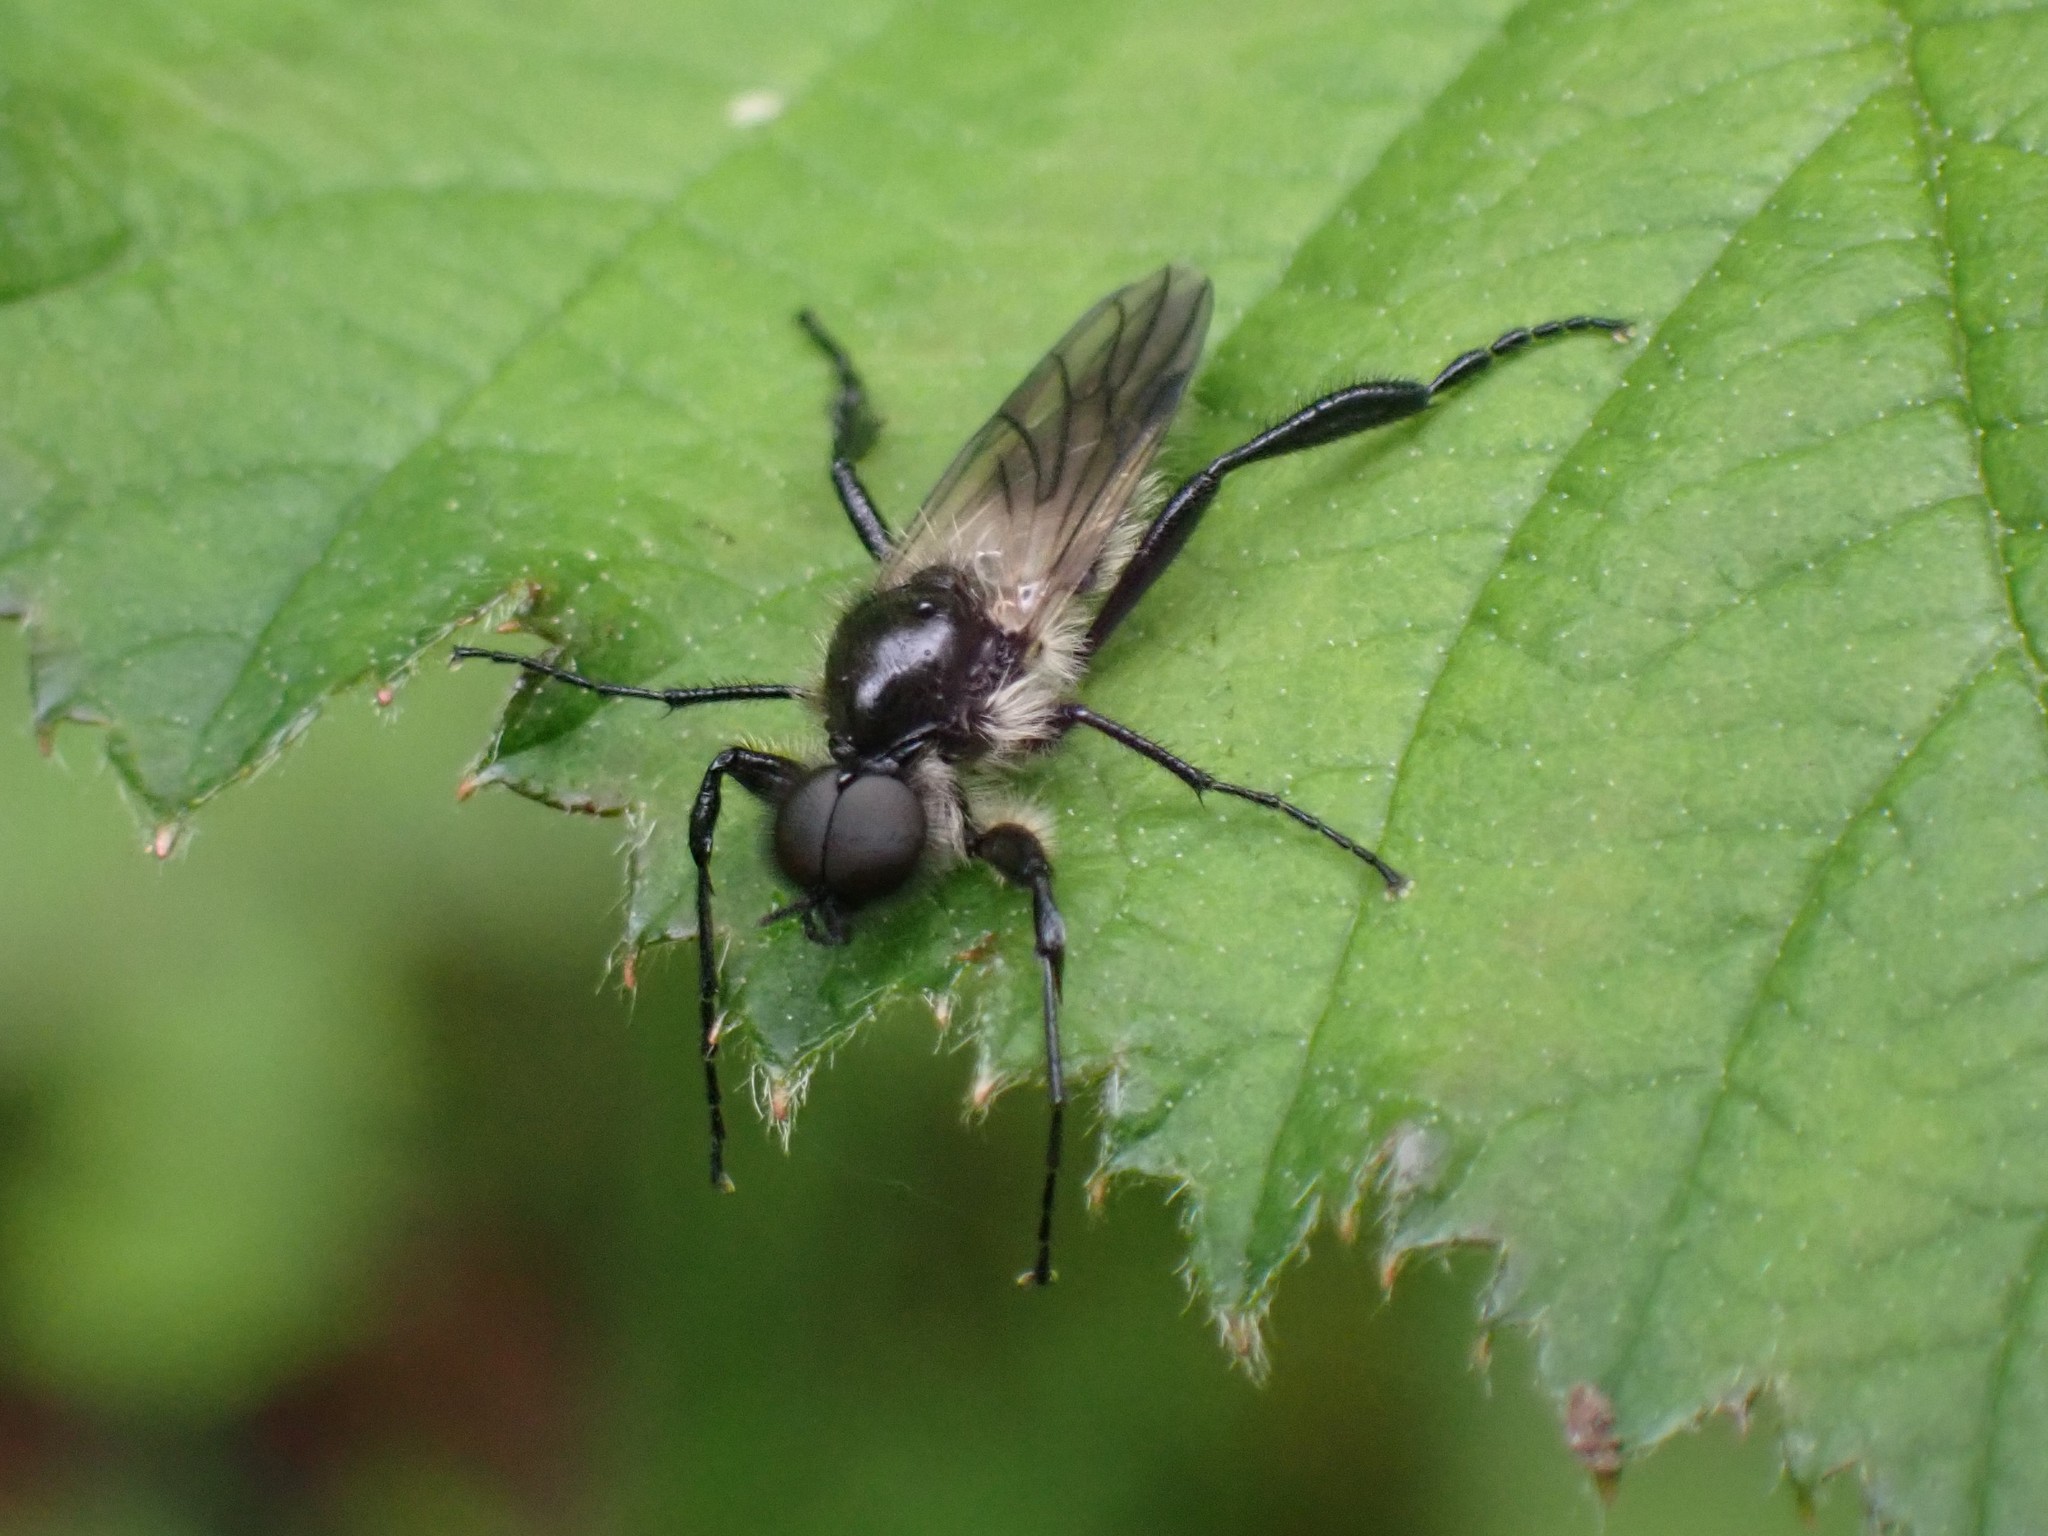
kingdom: Animalia
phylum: Arthropoda
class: Insecta
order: Diptera
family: Bibionidae
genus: Bibio
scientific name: Bibio albipennis
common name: White-winged march fly
